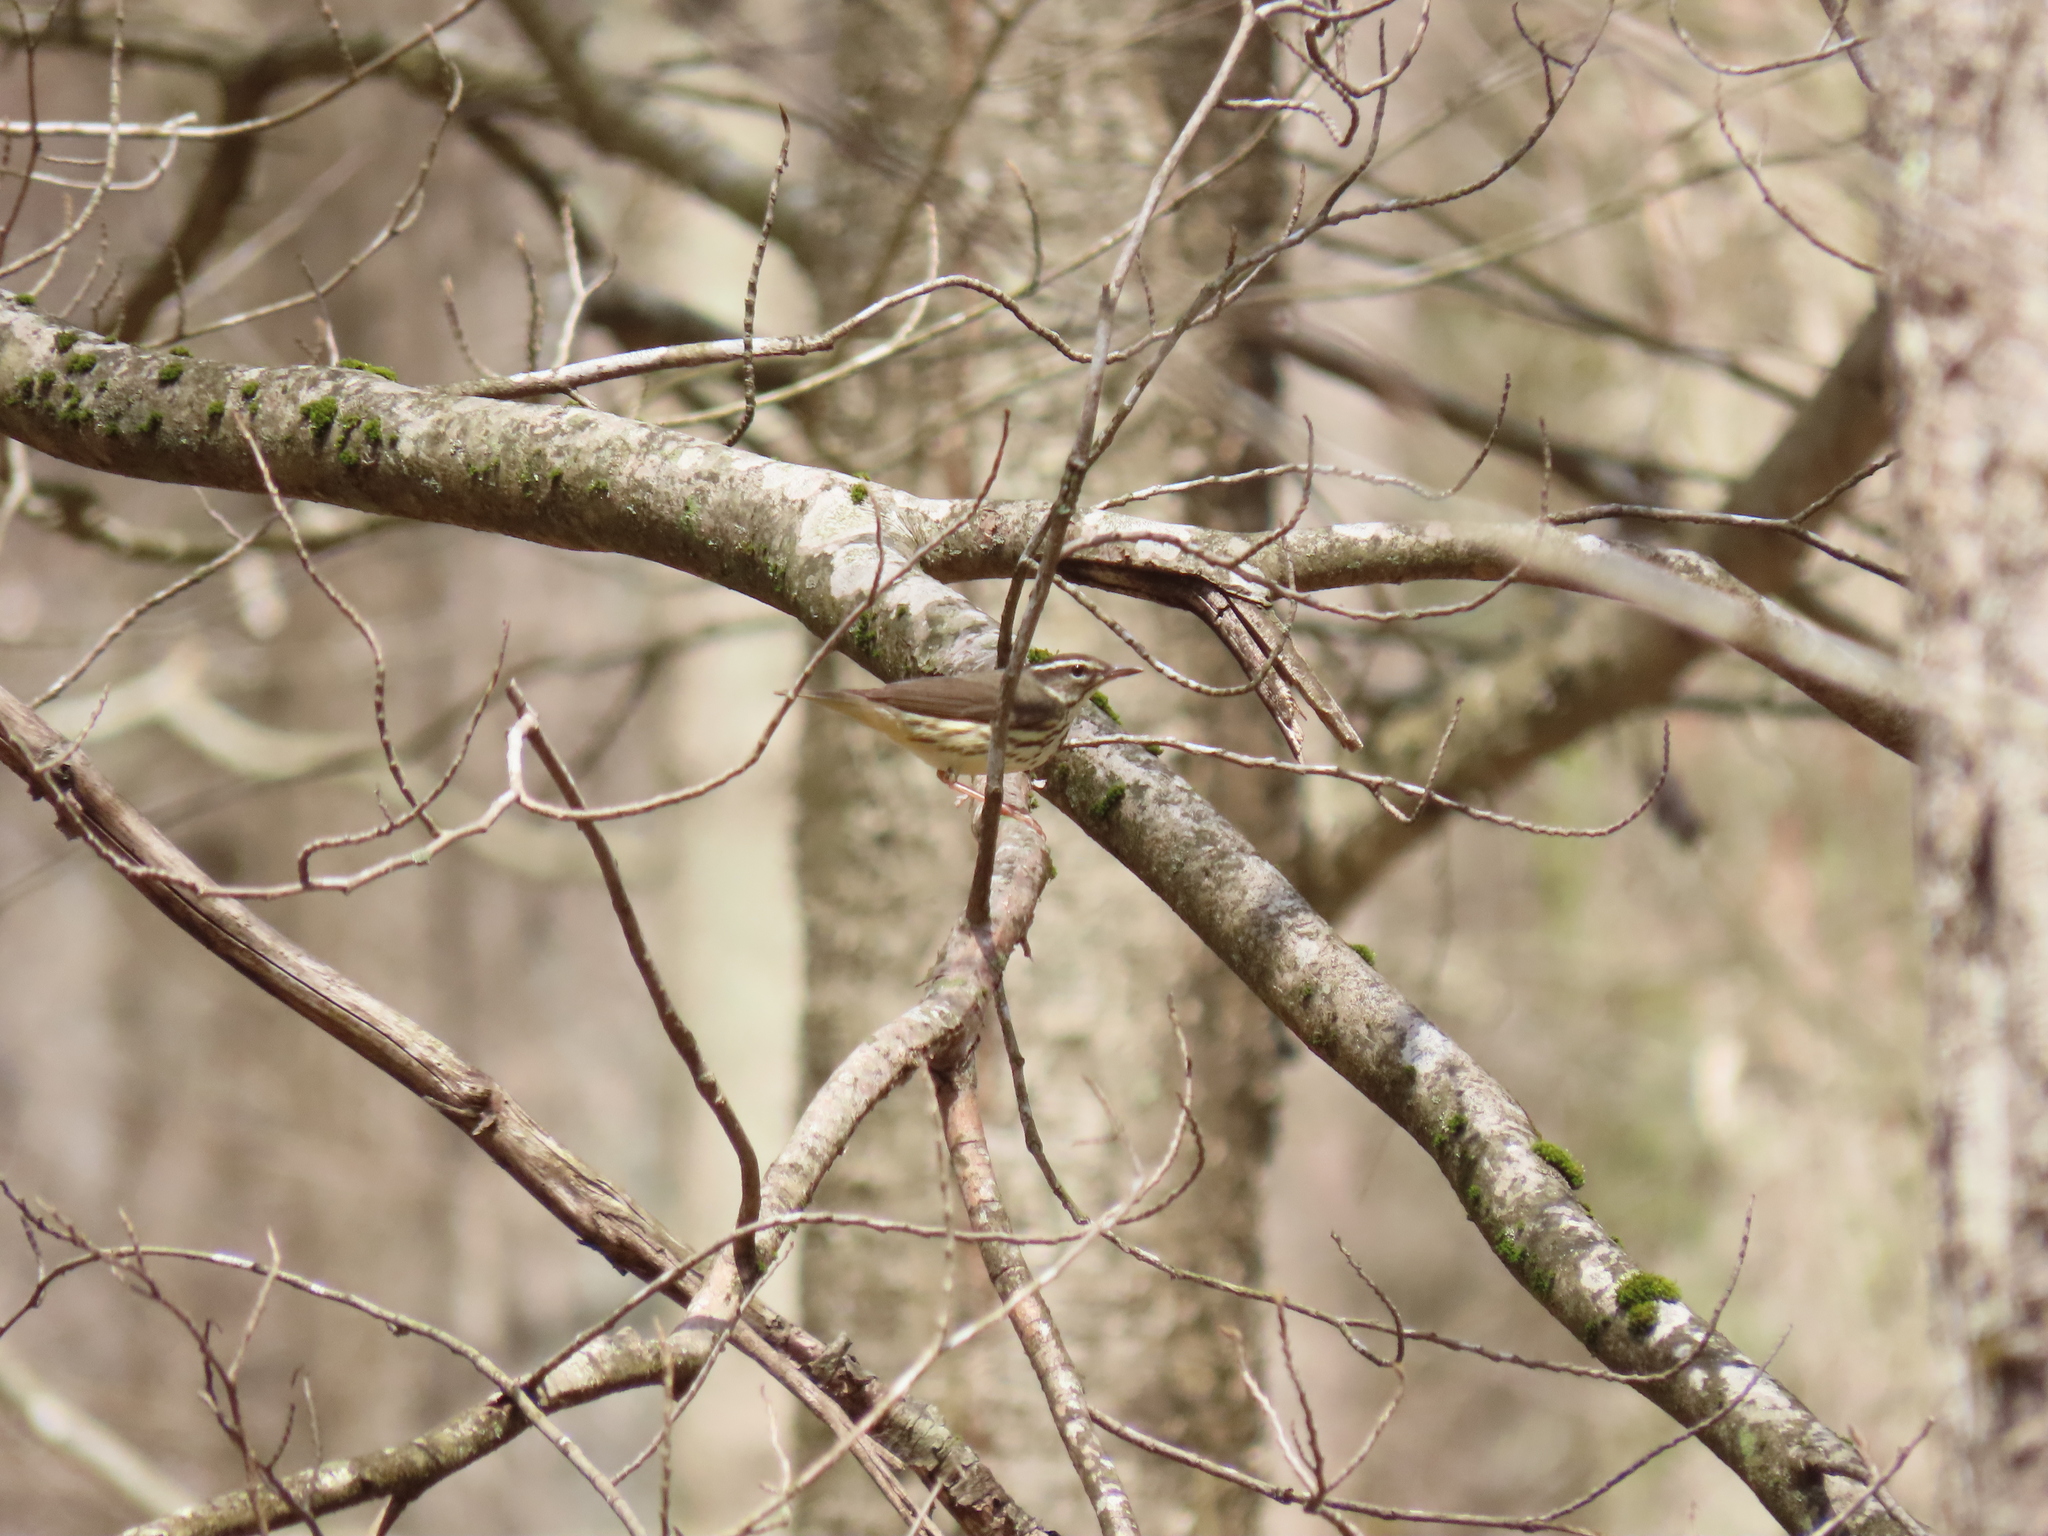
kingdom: Animalia
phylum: Chordata
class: Aves
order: Passeriformes
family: Parulidae
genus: Parkesia
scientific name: Parkesia motacilla
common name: Louisiana waterthrush
